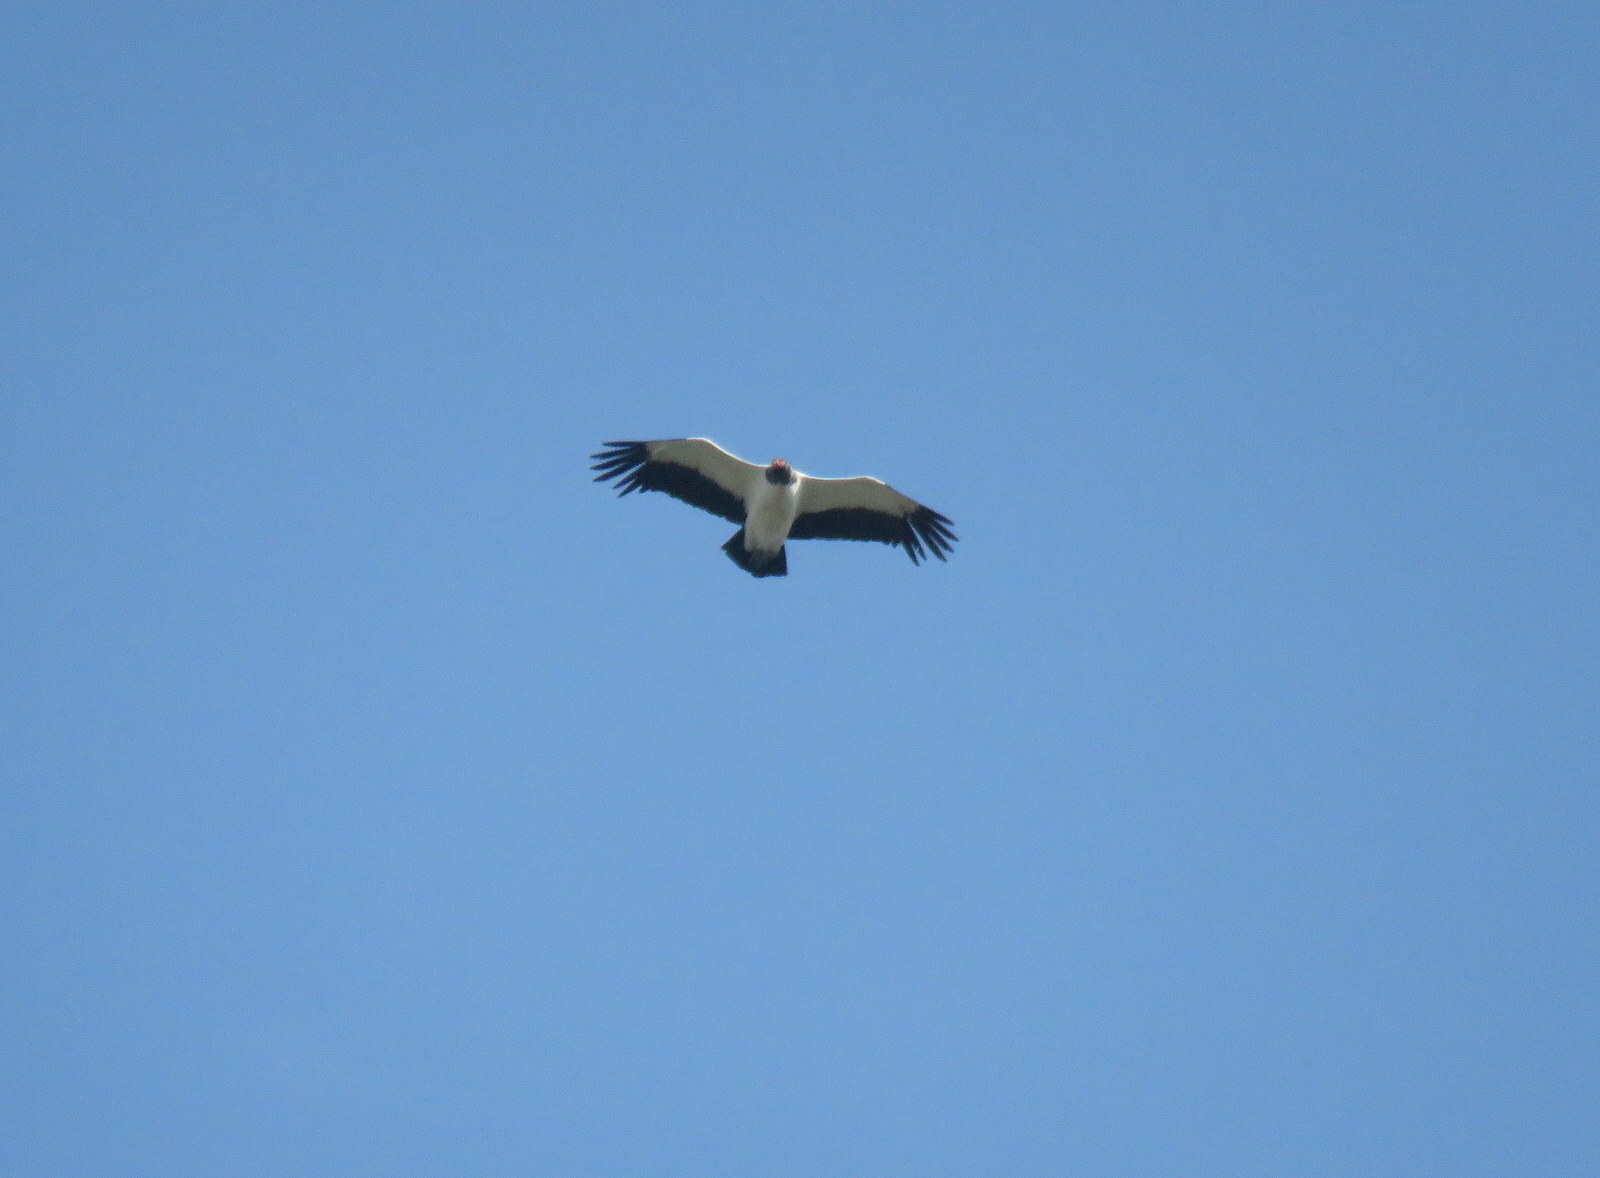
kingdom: Animalia
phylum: Chordata
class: Aves
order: Accipitriformes
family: Cathartidae
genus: Sarcoramphus
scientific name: Sarcoramphus papa
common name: King vulture
